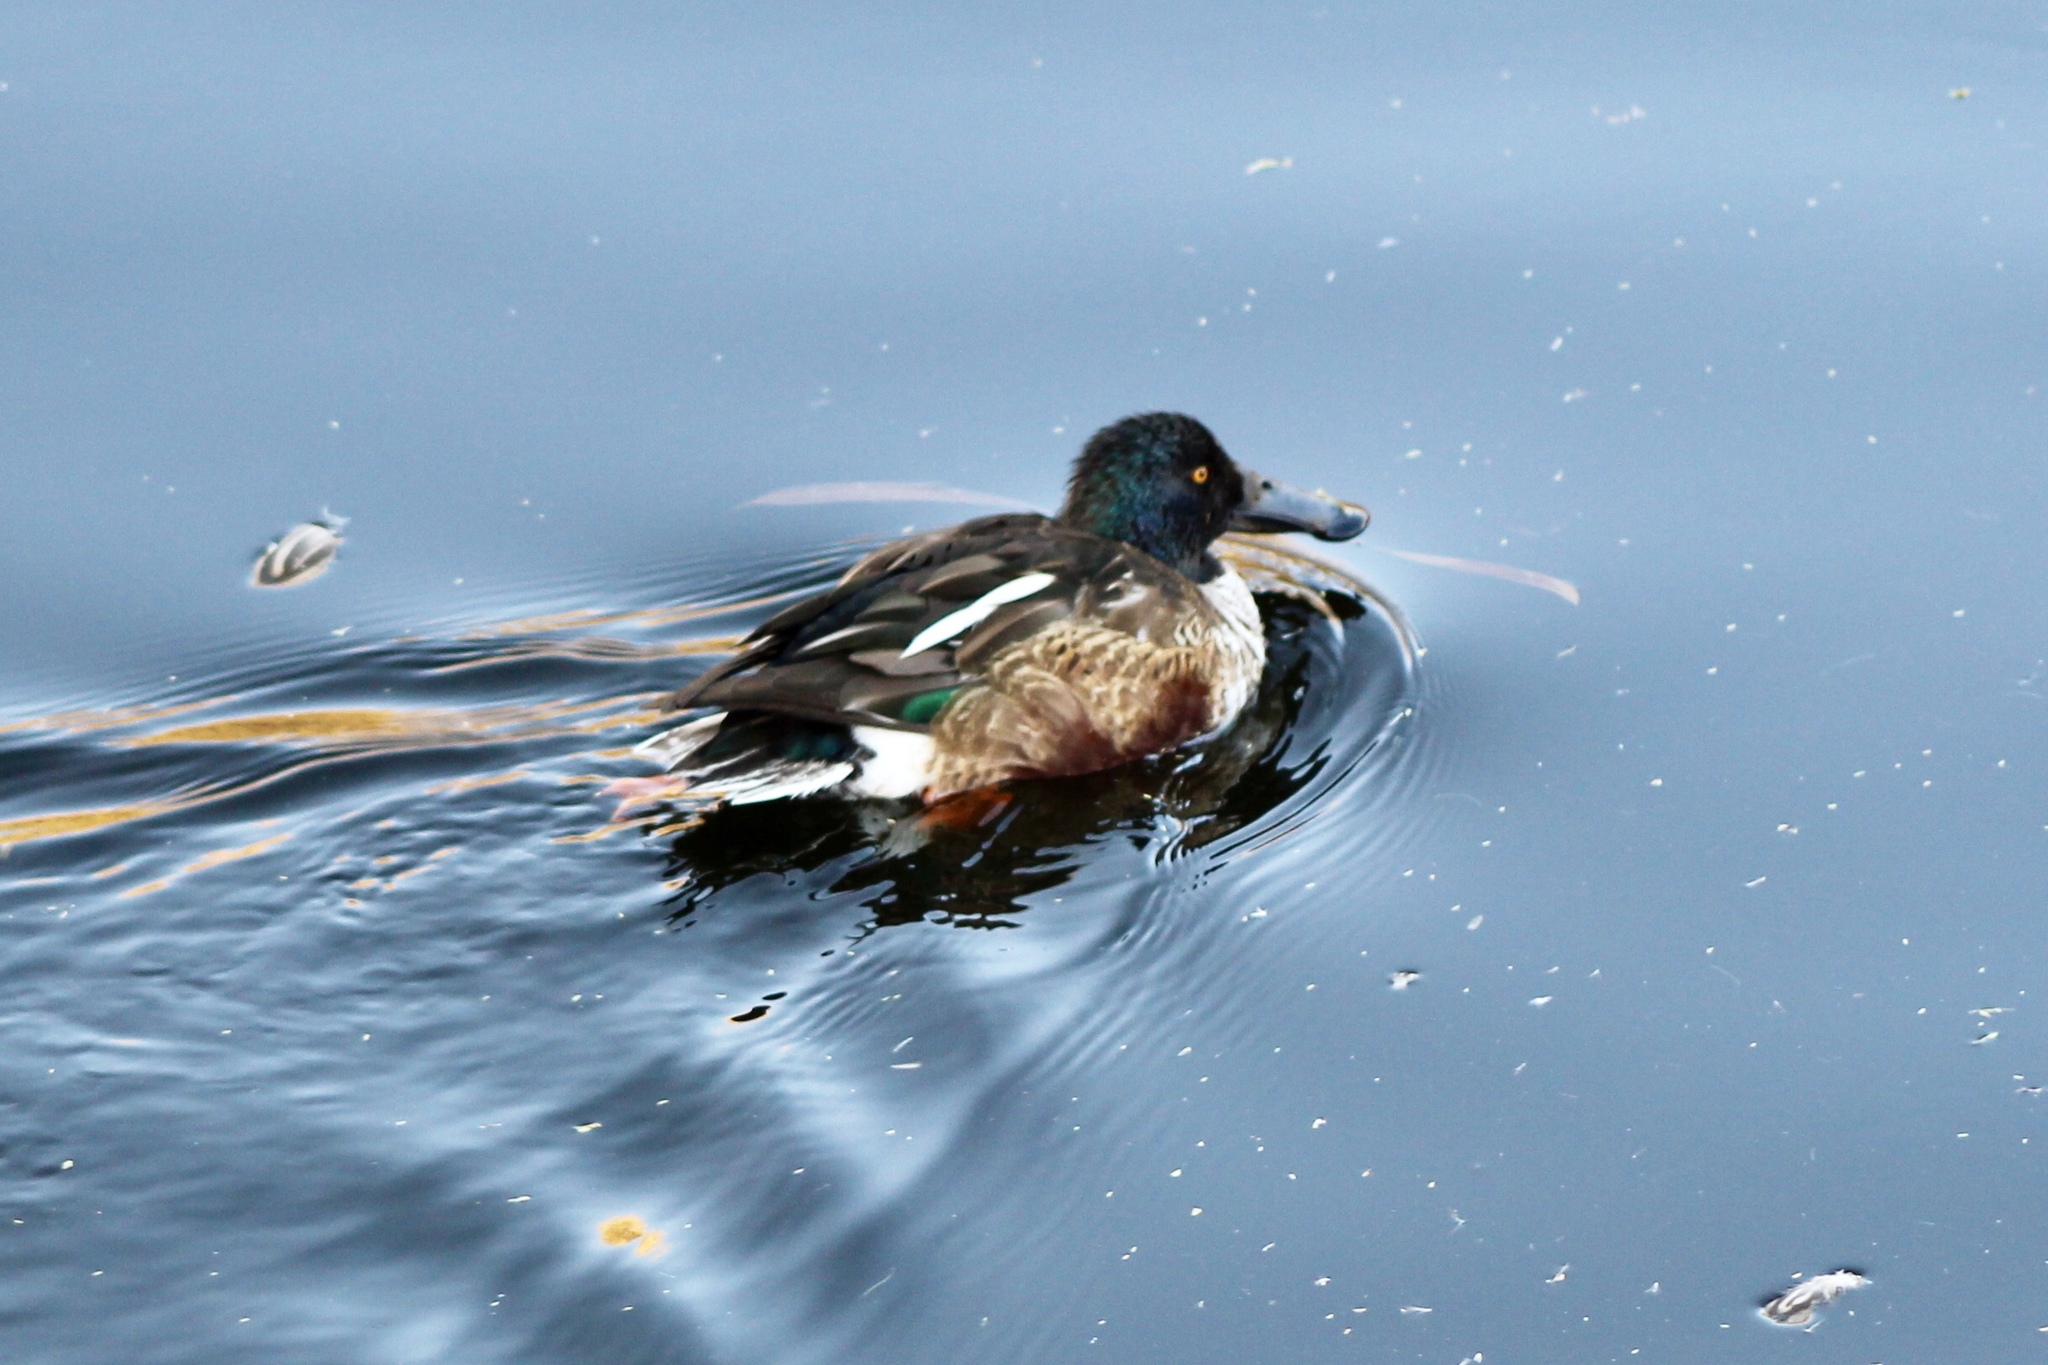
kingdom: Animalia
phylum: Chordata
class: Aves
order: Anseriformes
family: Anatidae
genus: Spatula
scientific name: Spatula clypeata
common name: Northern shoveler
